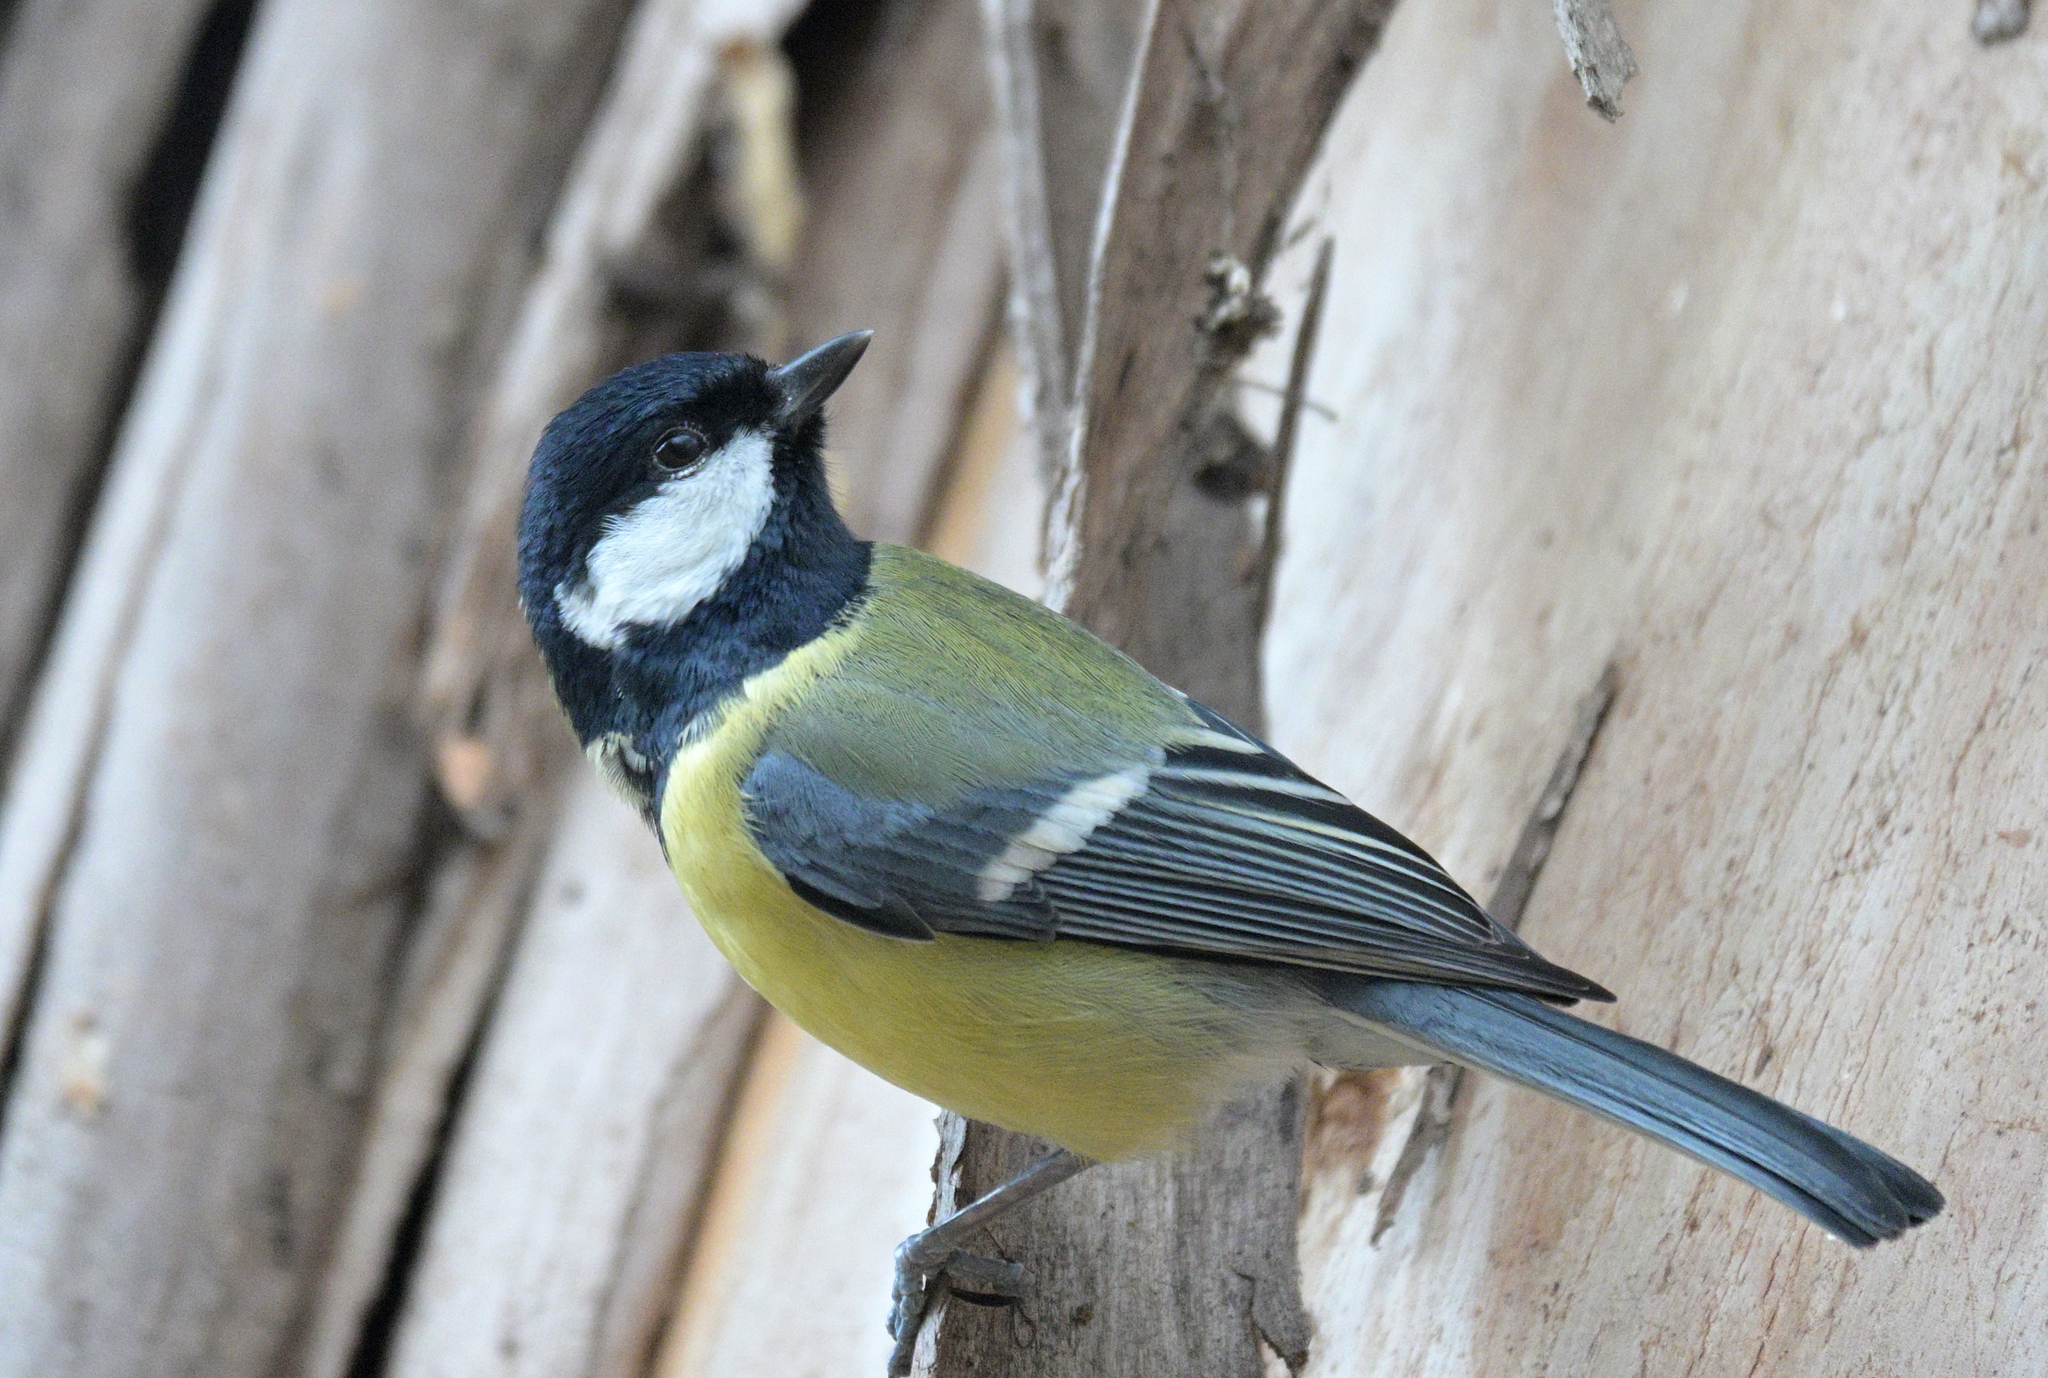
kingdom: Animalia
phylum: Chordata
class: Aves
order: Passeriformes
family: Paridae
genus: Parus
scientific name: Parus major
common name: Great tit
